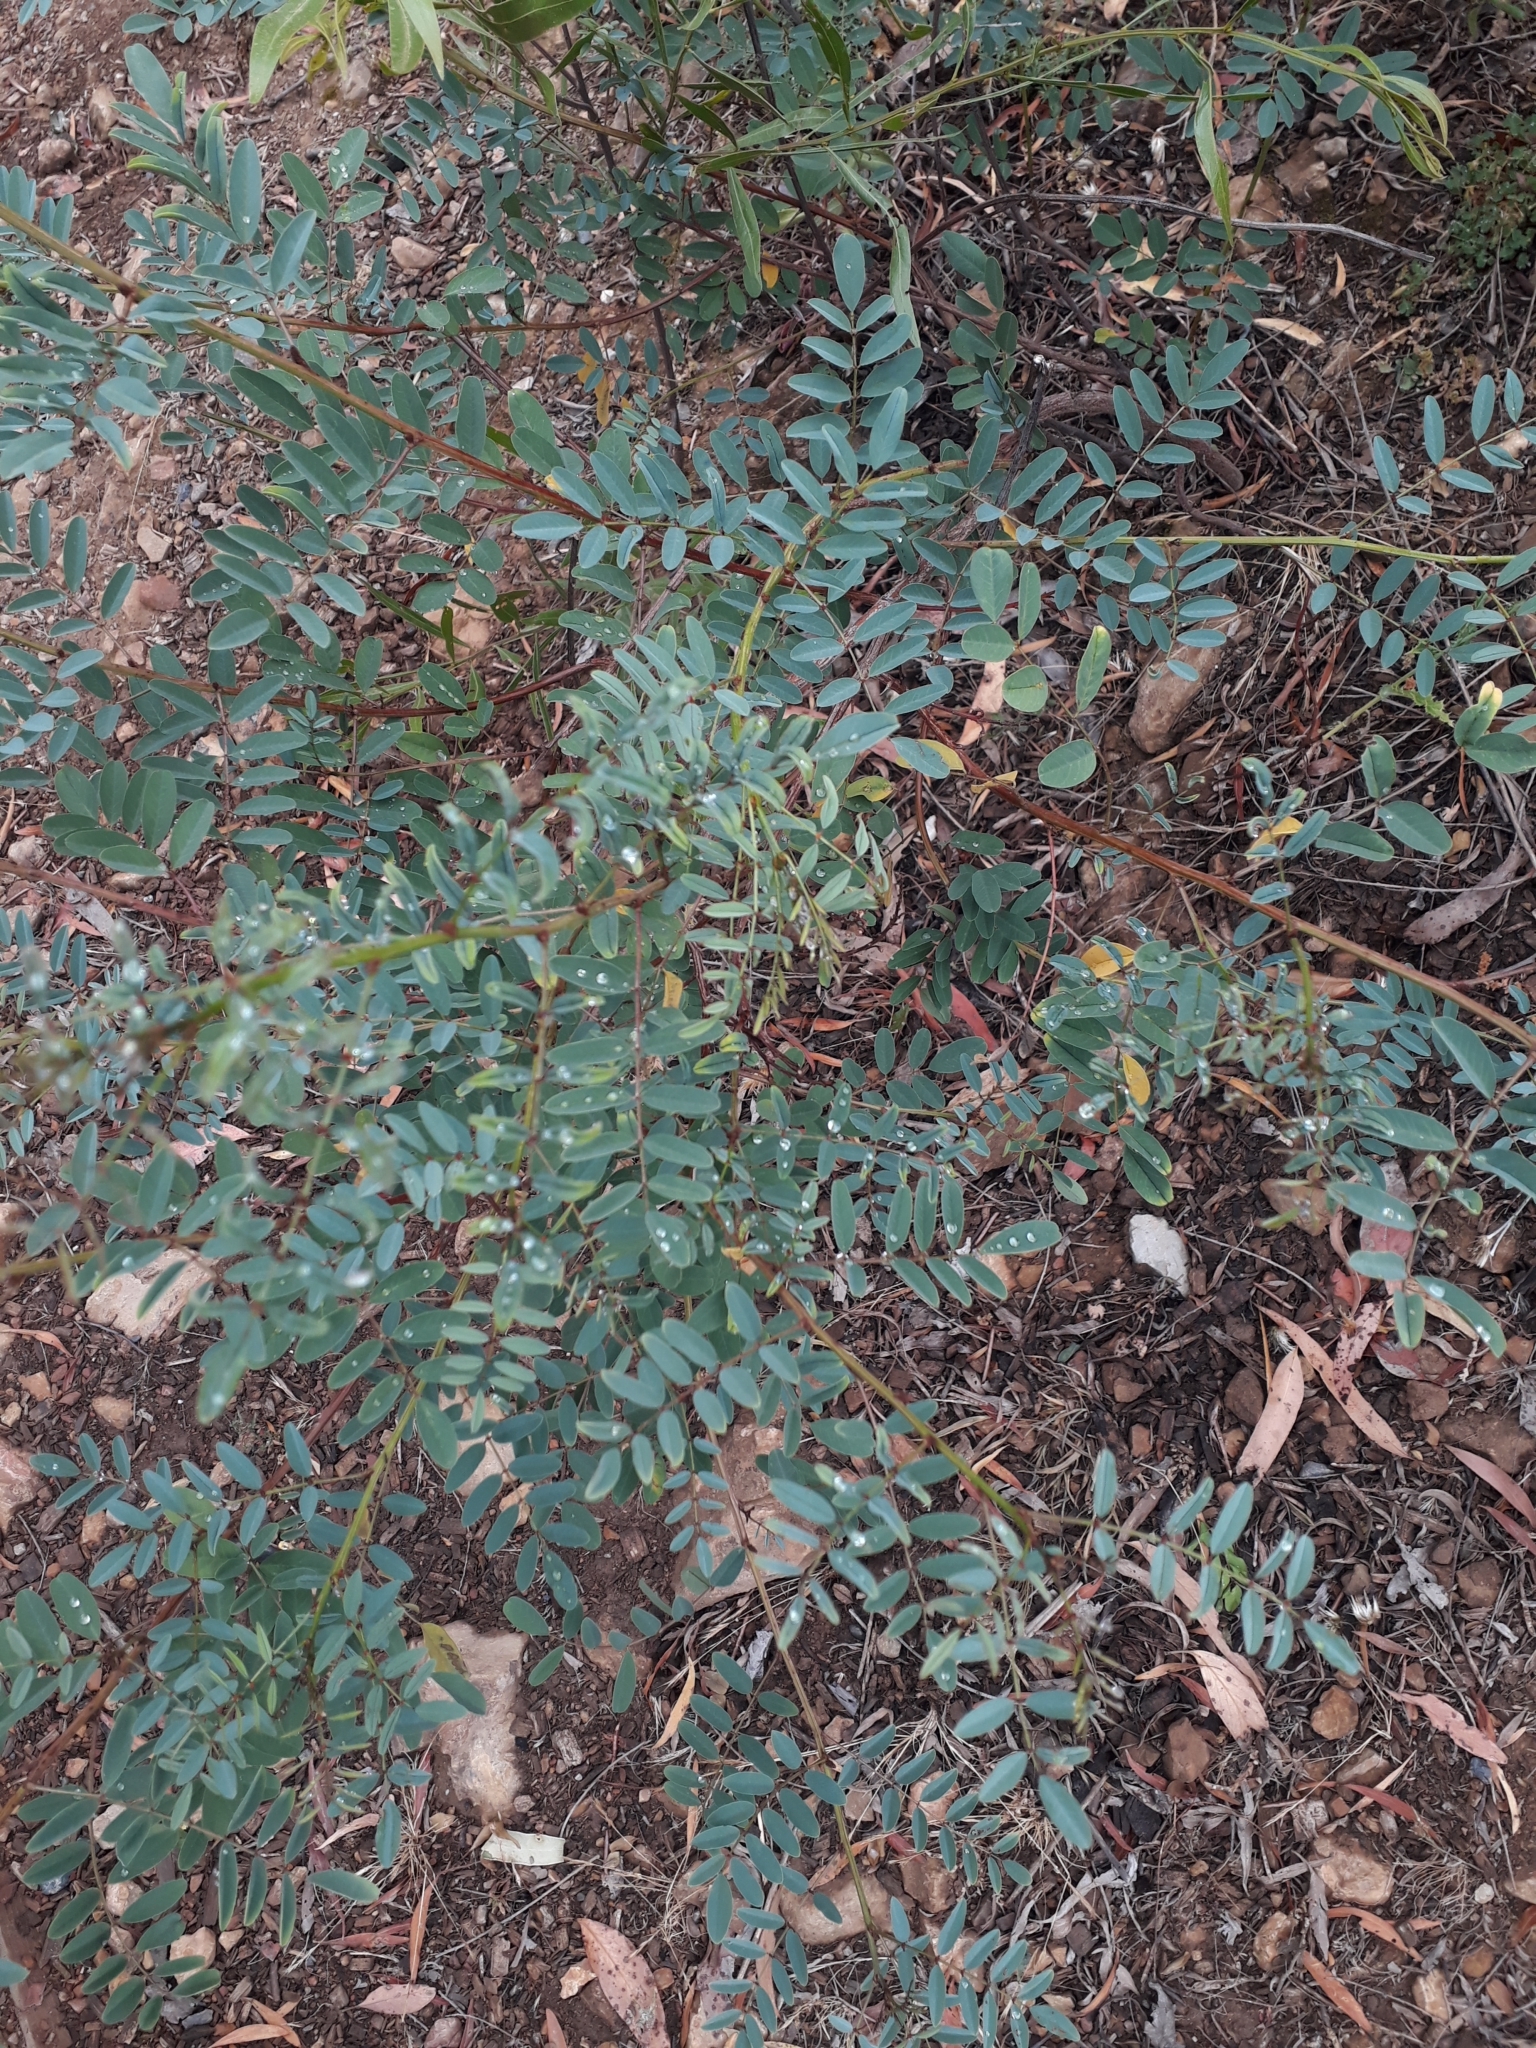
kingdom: Plantae
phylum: Tracheophyta
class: Magnoliopsida
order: Fabales
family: Fabaceae
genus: Indigofera
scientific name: Indigofera australis
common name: Australian indigo
